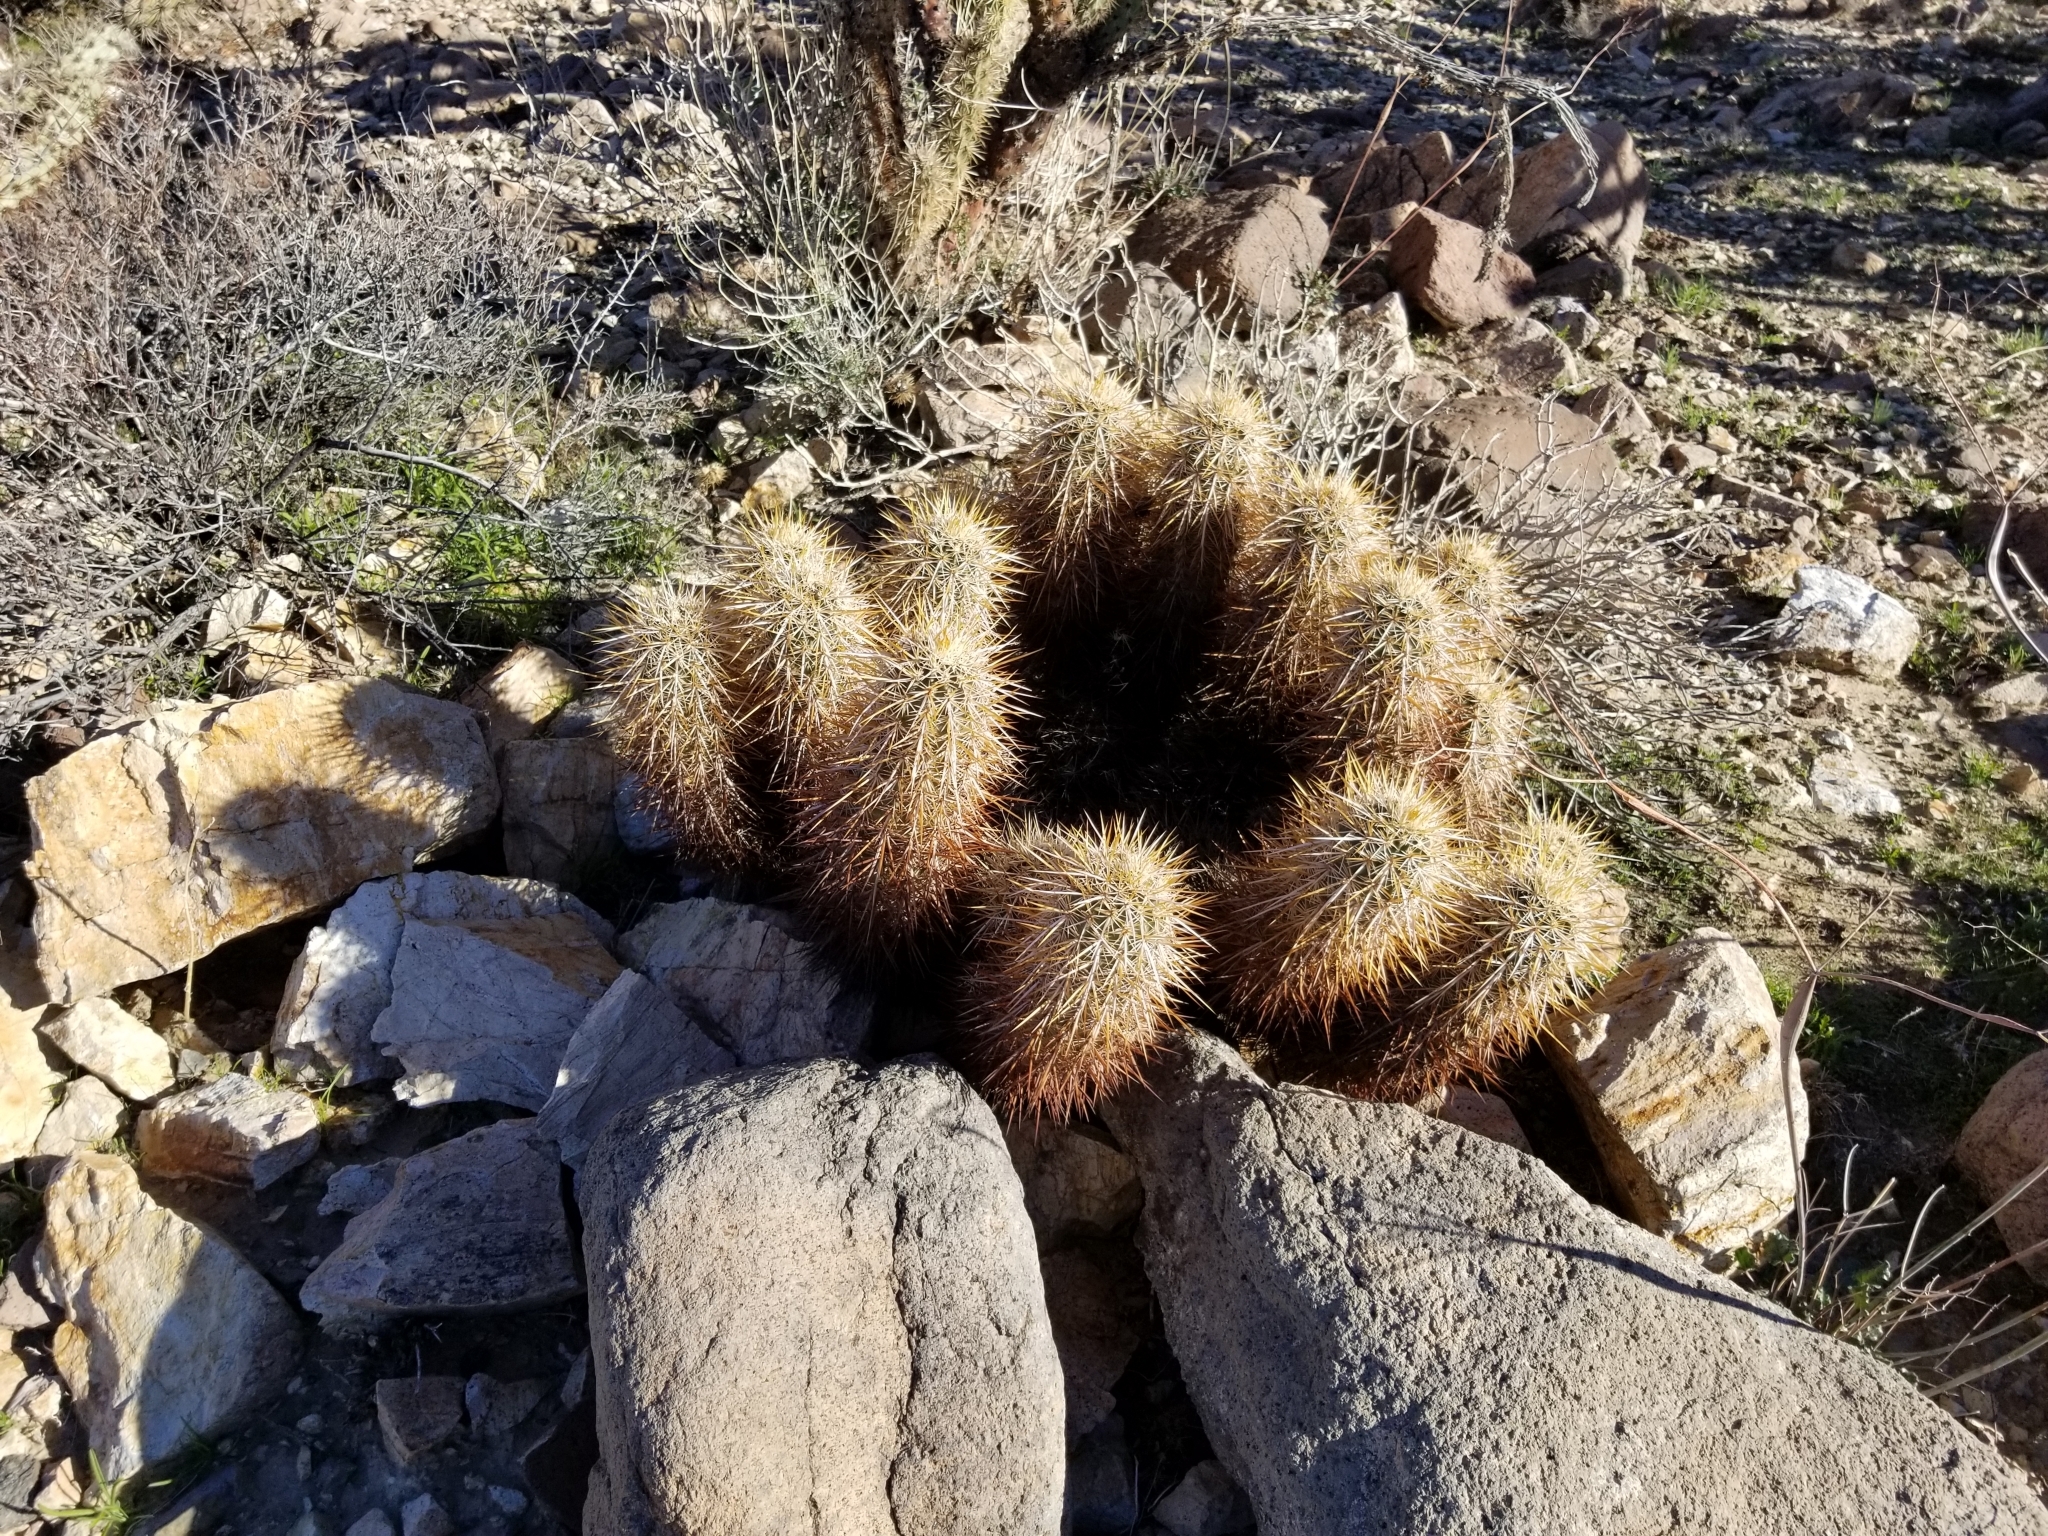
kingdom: Plantae
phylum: Tracheophyta
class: Magnoliopsida
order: Caryophyllales
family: Cactaceae
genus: Echinocereus
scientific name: Echinocereus engelmannii
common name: Engelmann's hedgehog cactus
